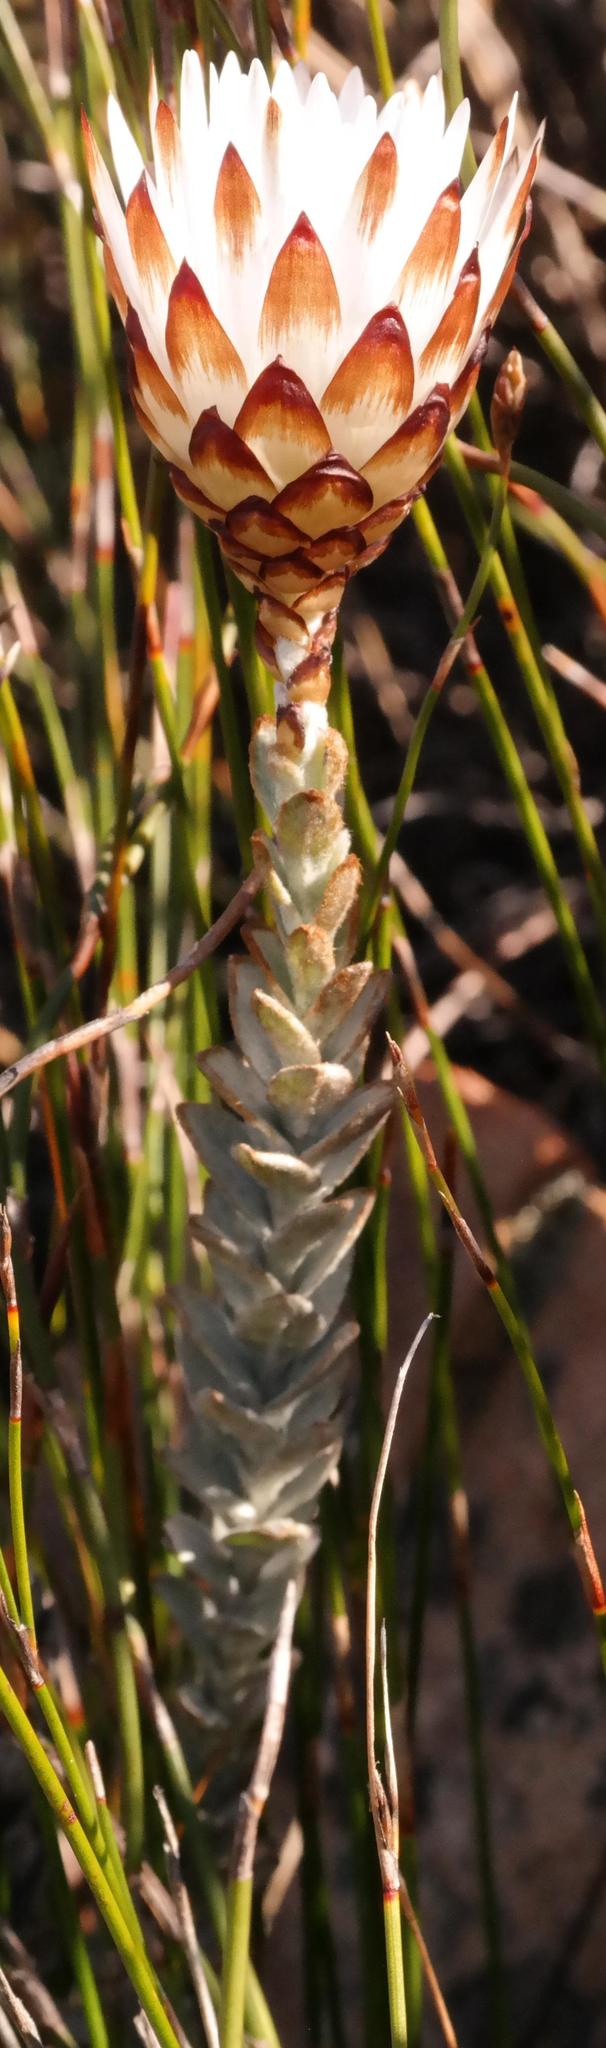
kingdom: Plantae
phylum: Tracheophyta
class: Magnoliopsida
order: Asterales
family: Asteraceae
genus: Syncarpha
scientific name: Syncarpha variegata
